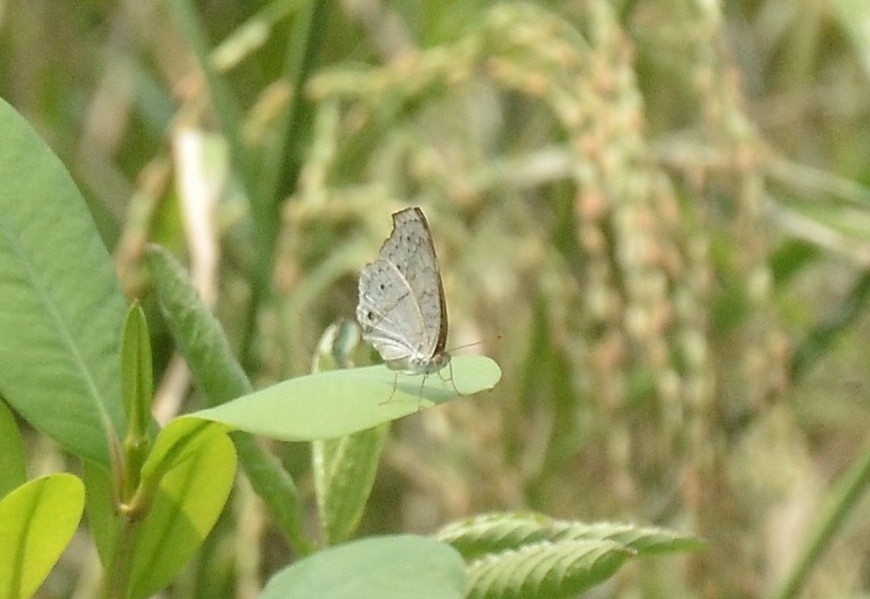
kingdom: Animalia
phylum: Arthropoda
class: Insecta
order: Lepidoptera
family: Nymphalidae
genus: Junonia
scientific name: Junonia atlites
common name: Grey pansy
